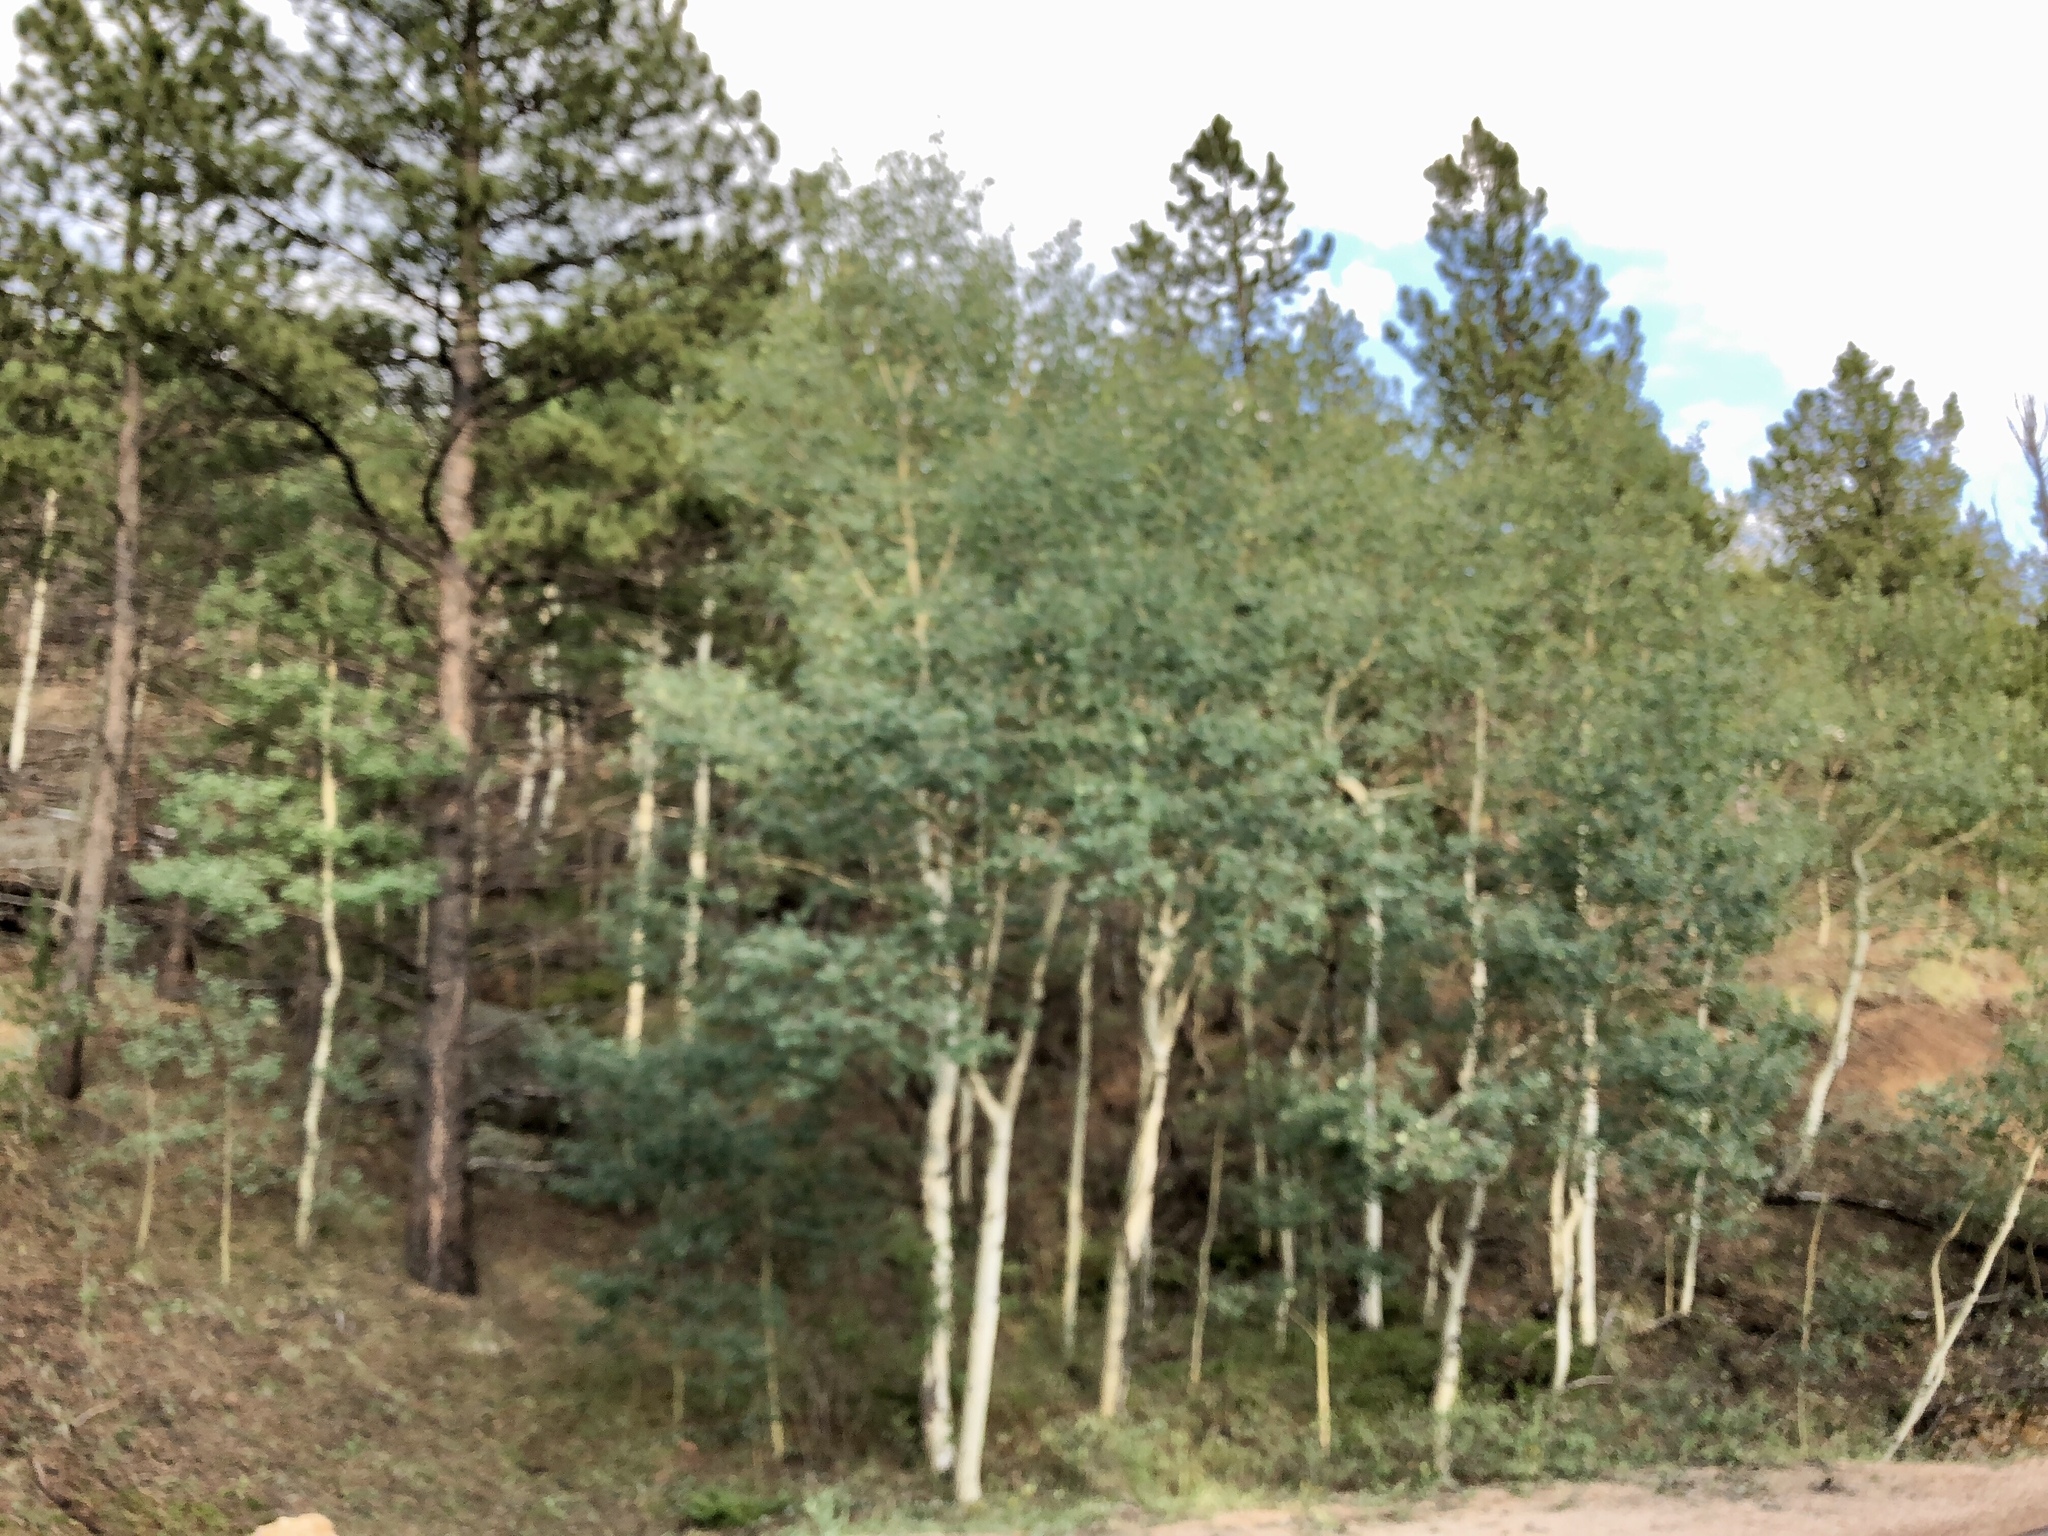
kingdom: Plantae
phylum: Tracheophyta
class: Magnoliopsida
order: Malpighiales
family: Salicaceae
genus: Populus
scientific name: Populus tremuloides
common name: Quaking aspen
